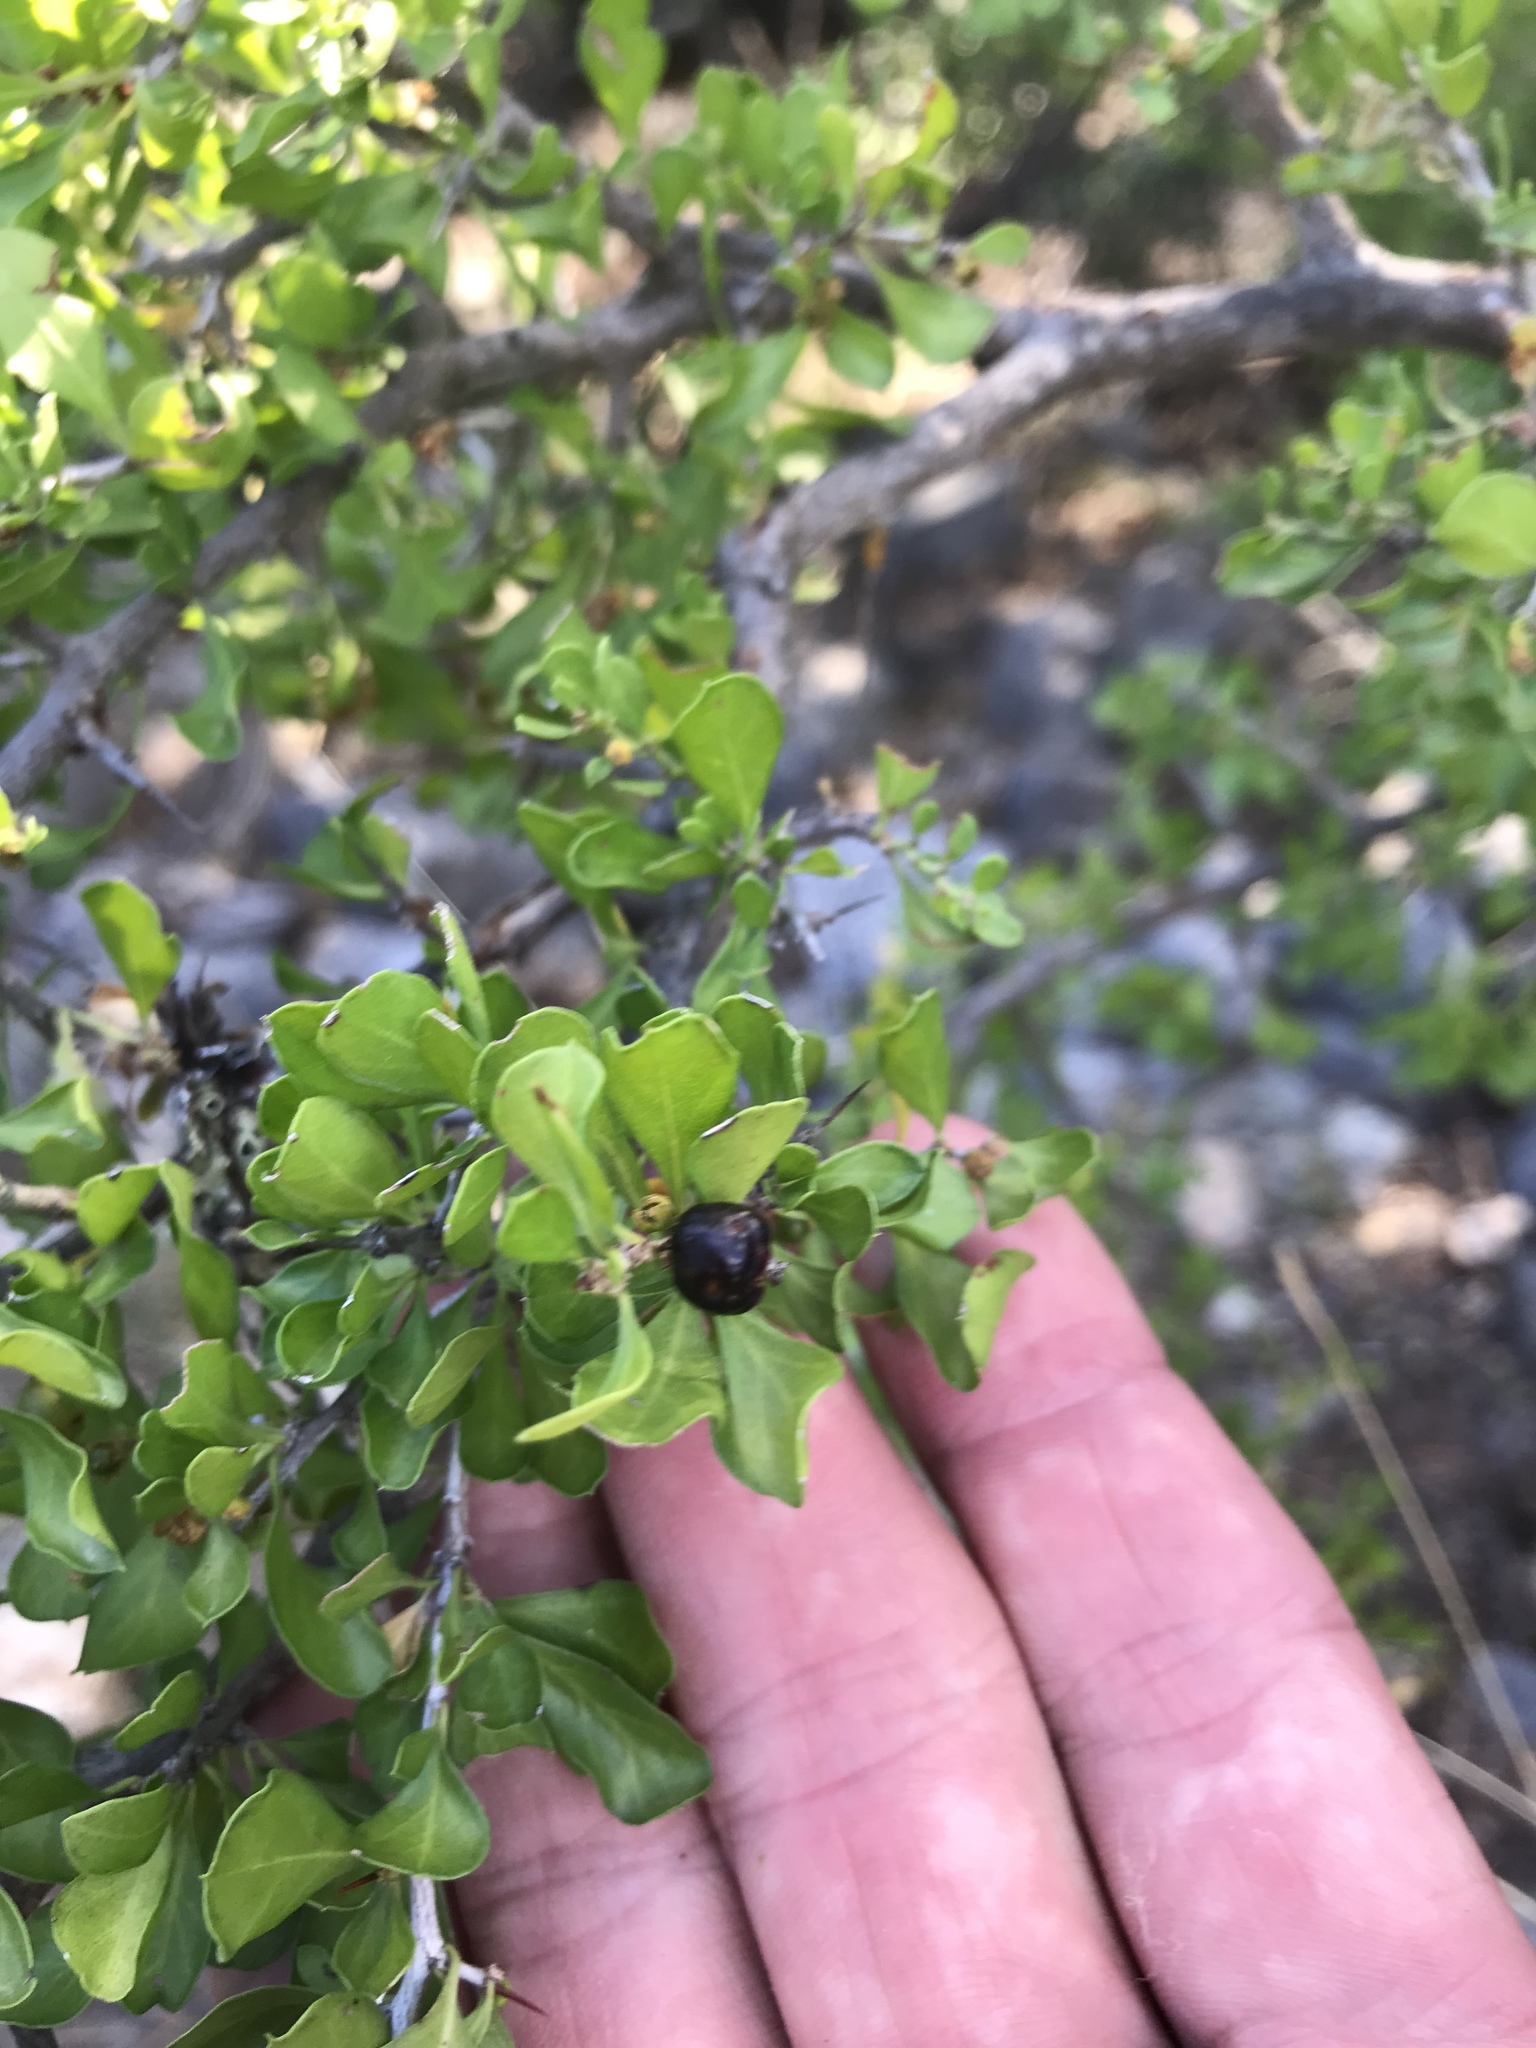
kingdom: Plantae
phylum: Tracheophyta
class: Magnoliopsida
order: Rosales
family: Rhamnaceae
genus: Condalia
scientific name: Condalia hookeri
